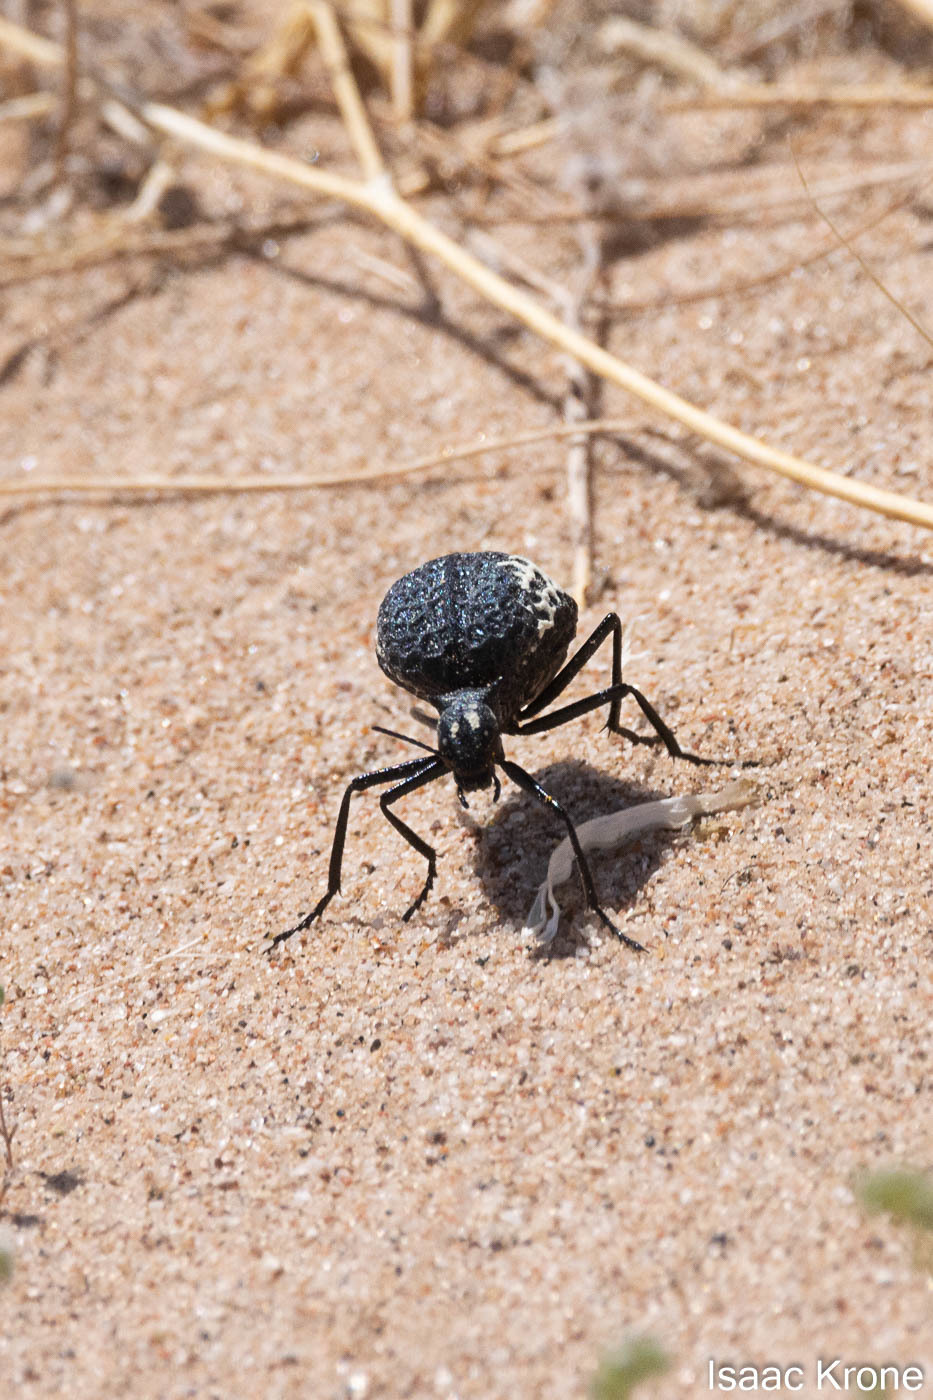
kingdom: Animalia
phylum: Arthropoda
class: Insecta
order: Coleoptera
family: Meloidae
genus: Cysteodemus
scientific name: Cysteodemus armatus
